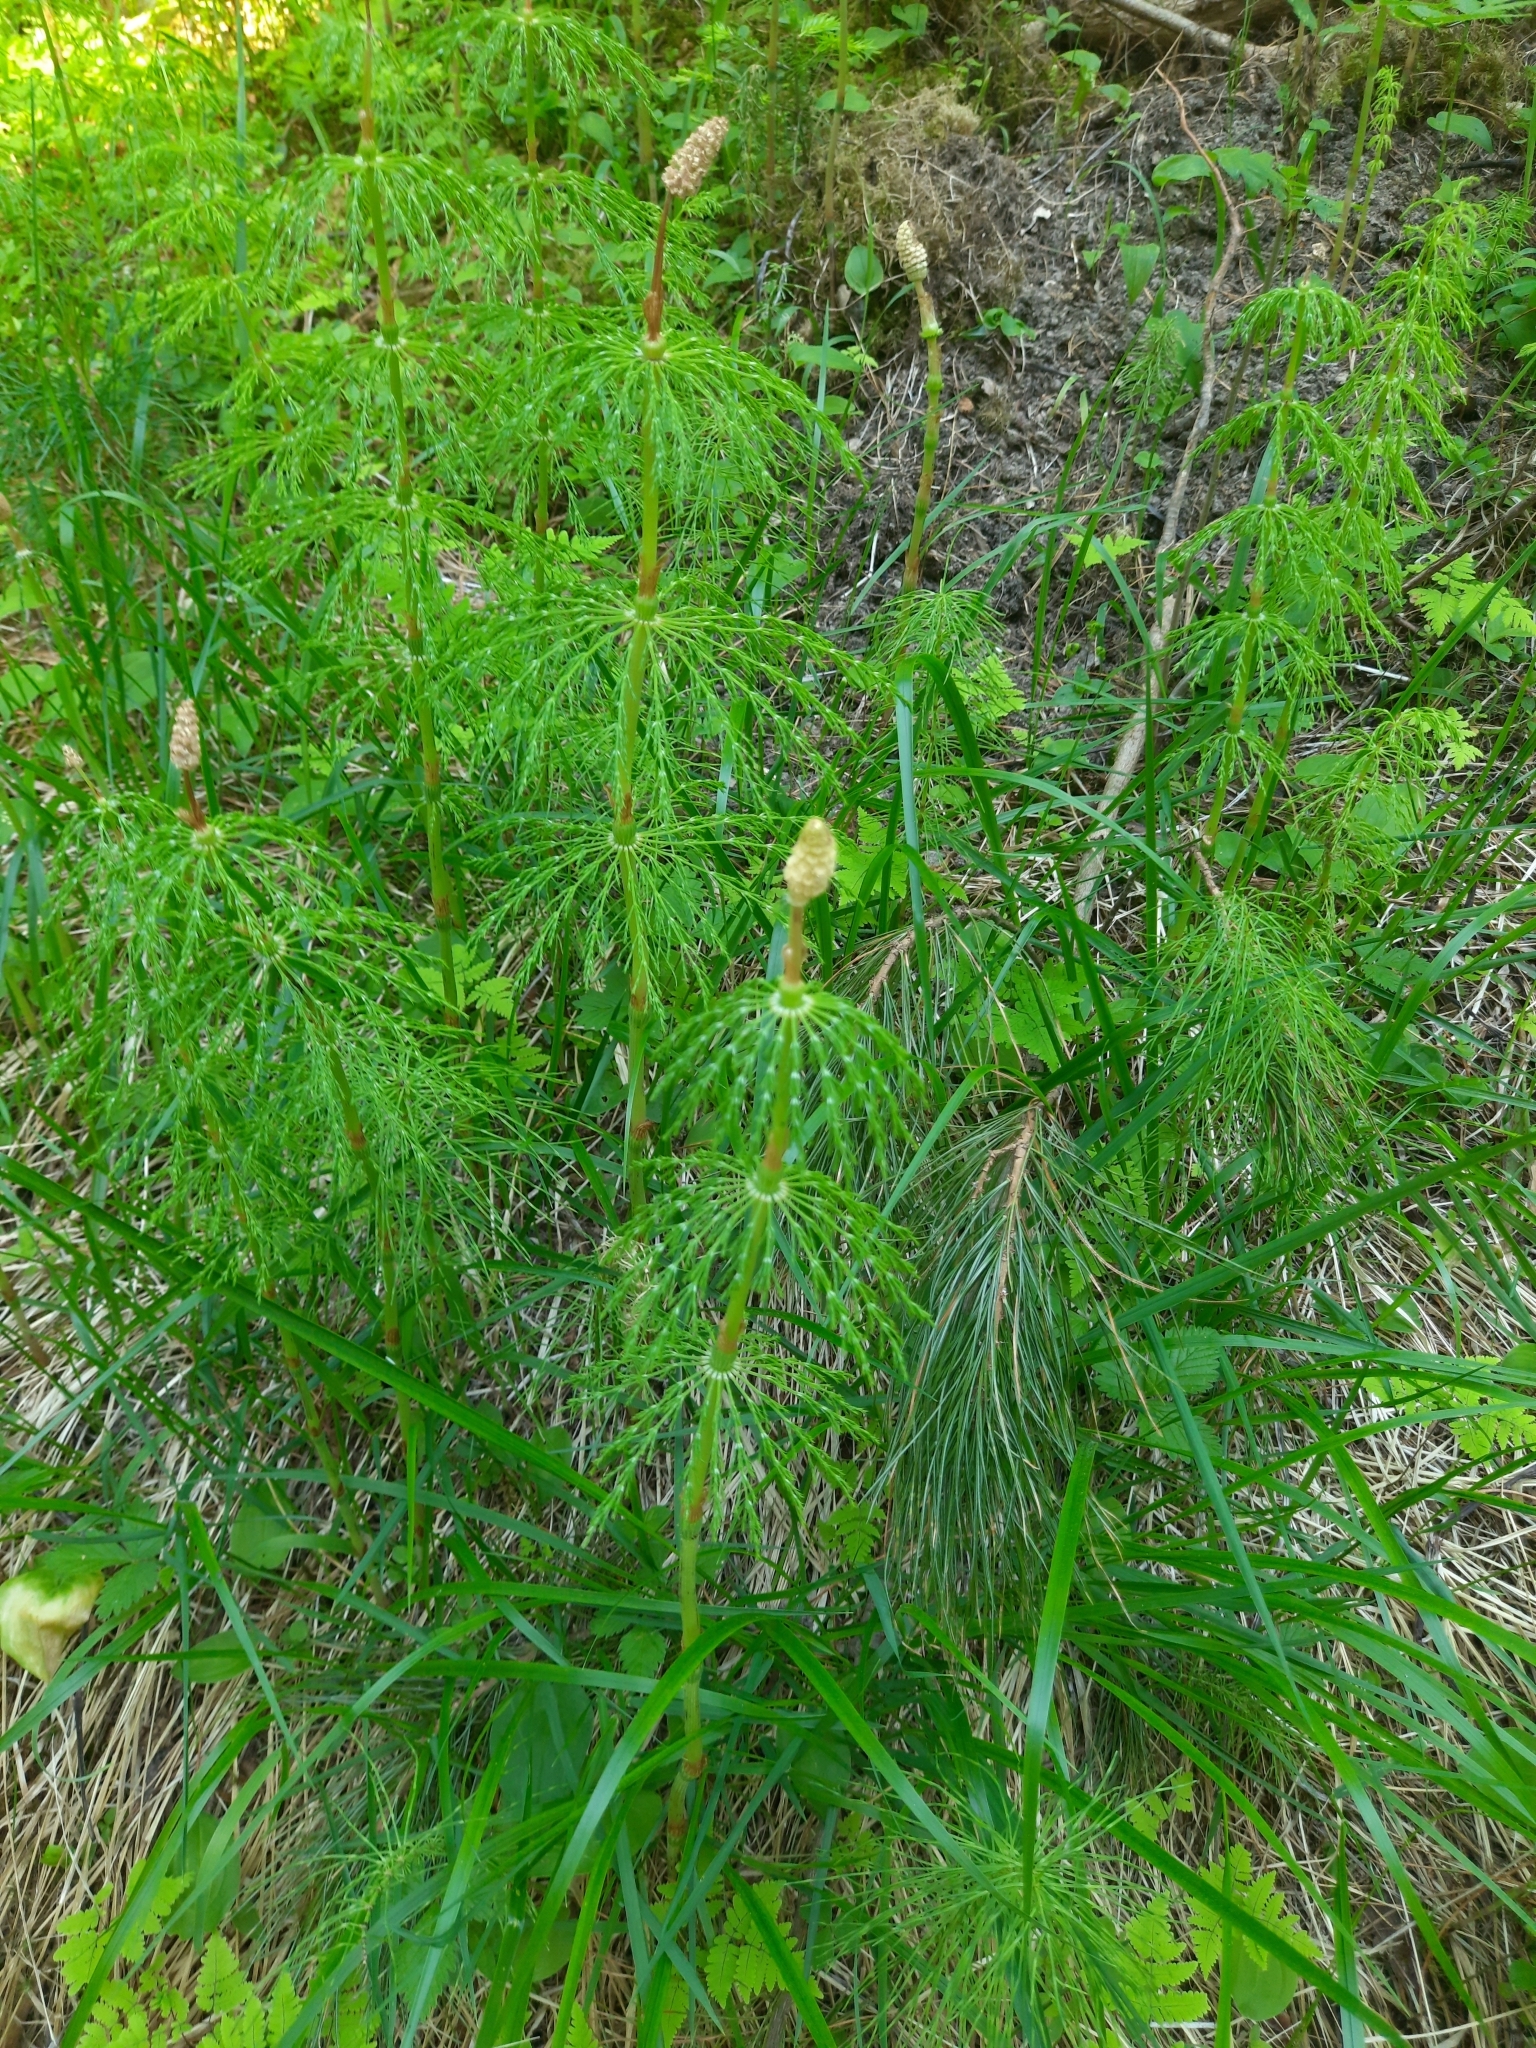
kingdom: Plantae
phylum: Tracheophyta
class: Polypodiopsida
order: Equisetales
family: Equisetaceae
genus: Equisetum
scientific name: Equisetum sylvaticum
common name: Wood horsetail
